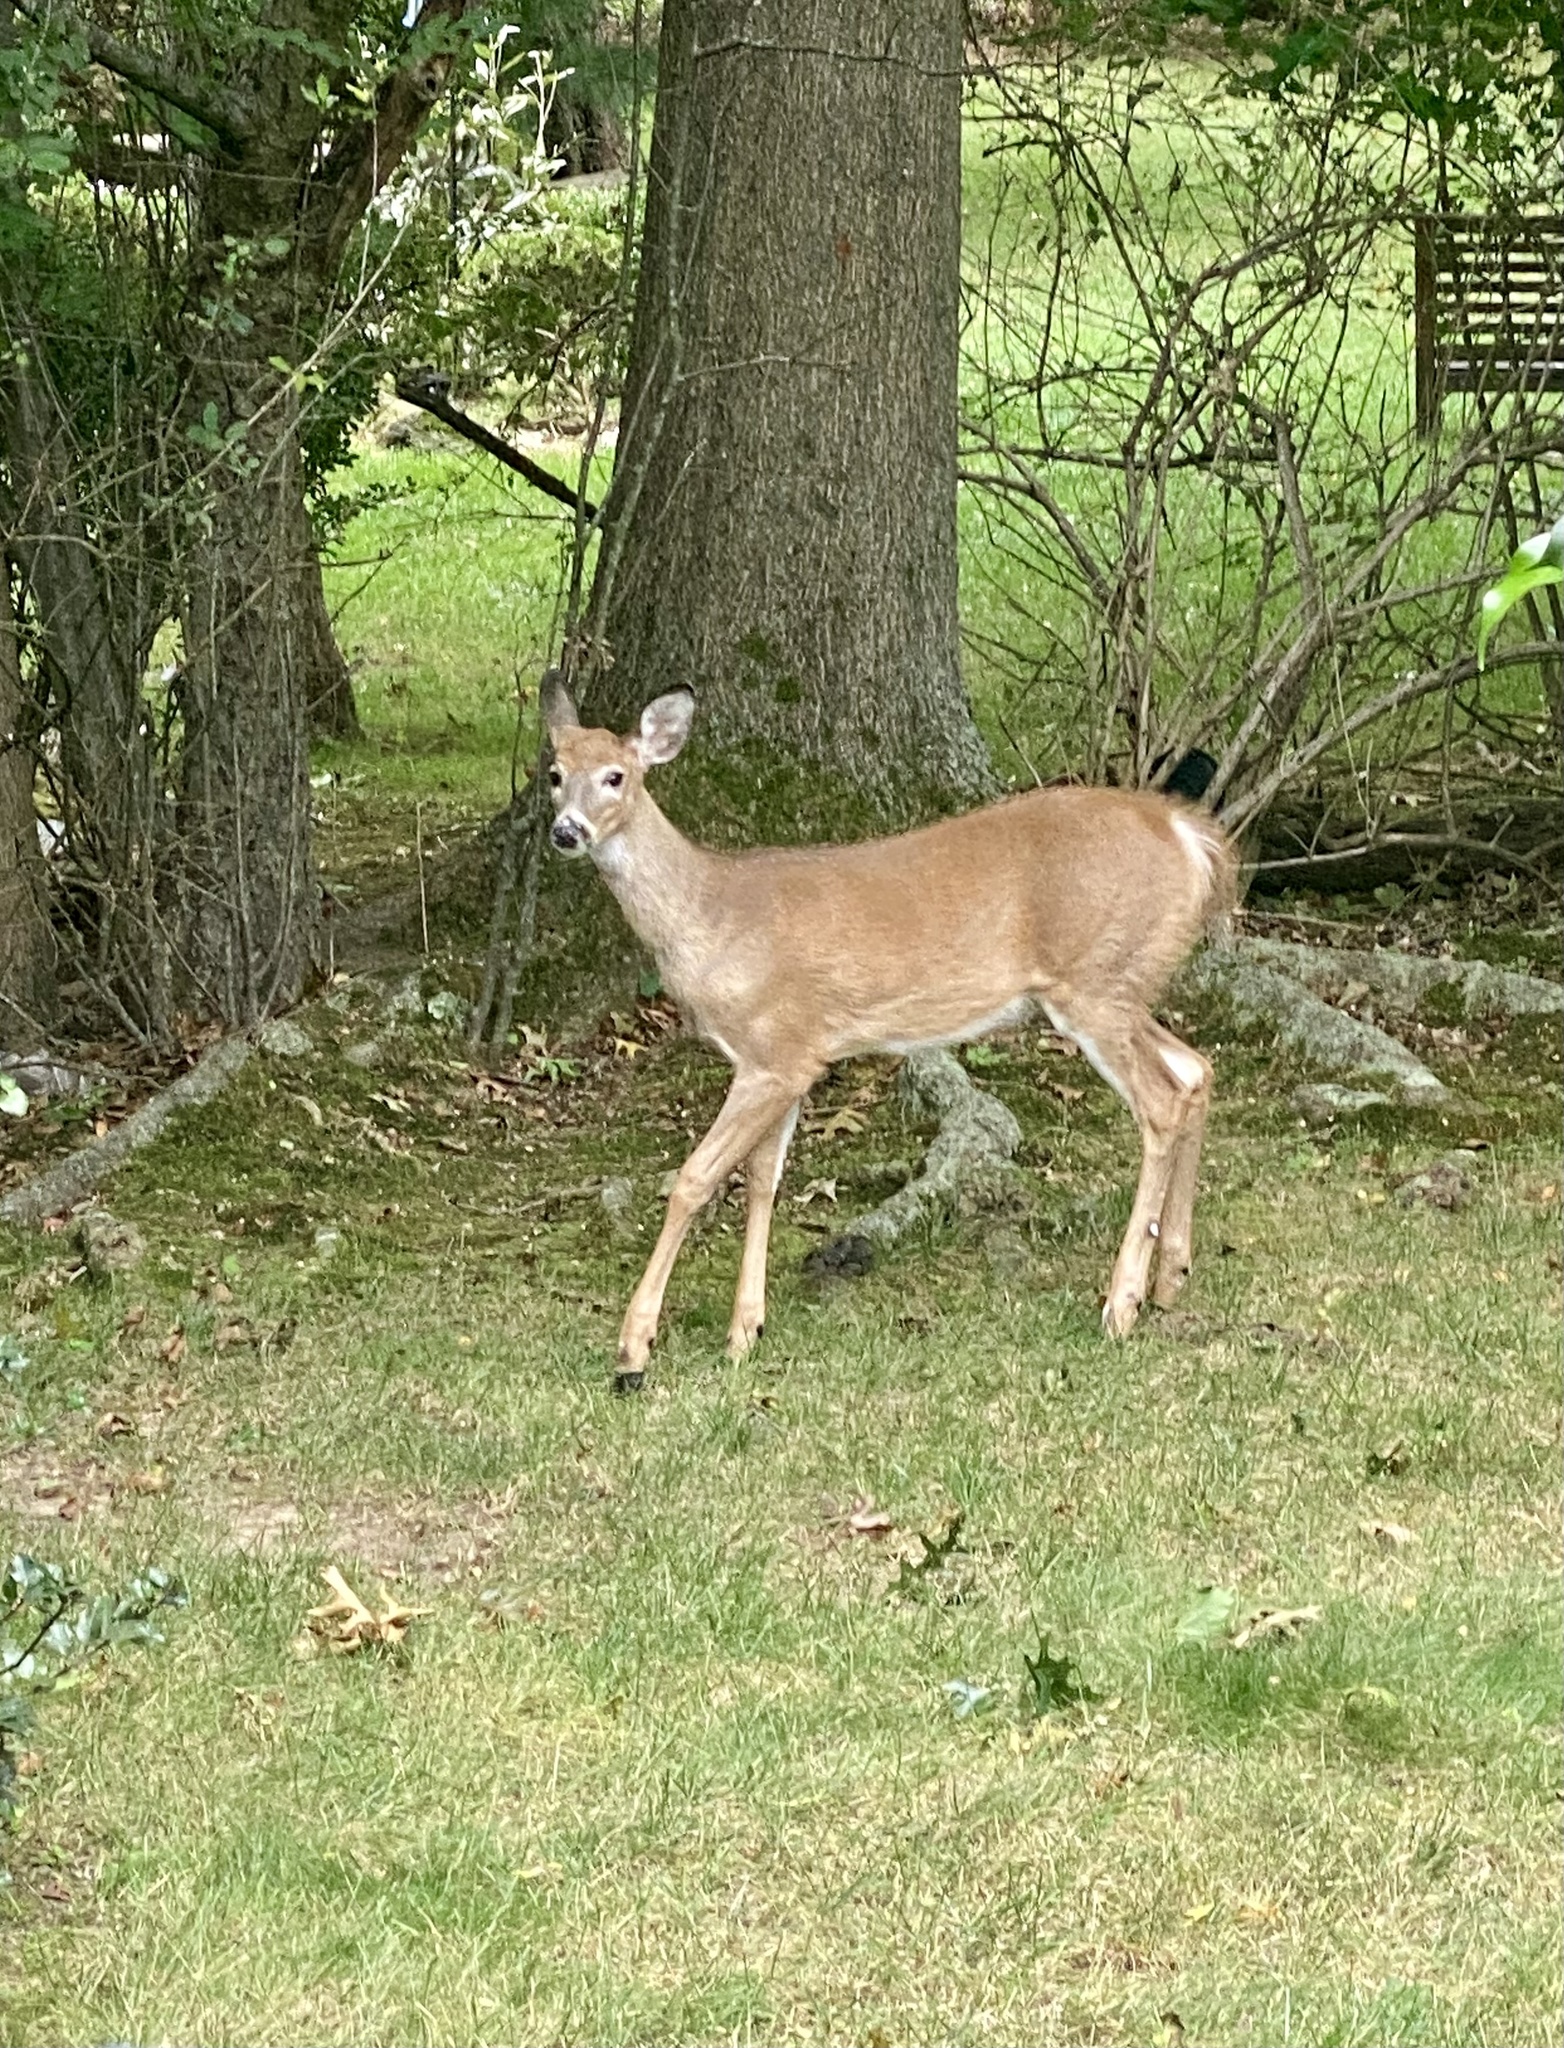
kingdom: Animalia
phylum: Chordata
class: Mammalia
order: Artiodactyla
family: Cervidae
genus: Odocoileus
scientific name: Odocoileus virginianus
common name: White-tailed deer
